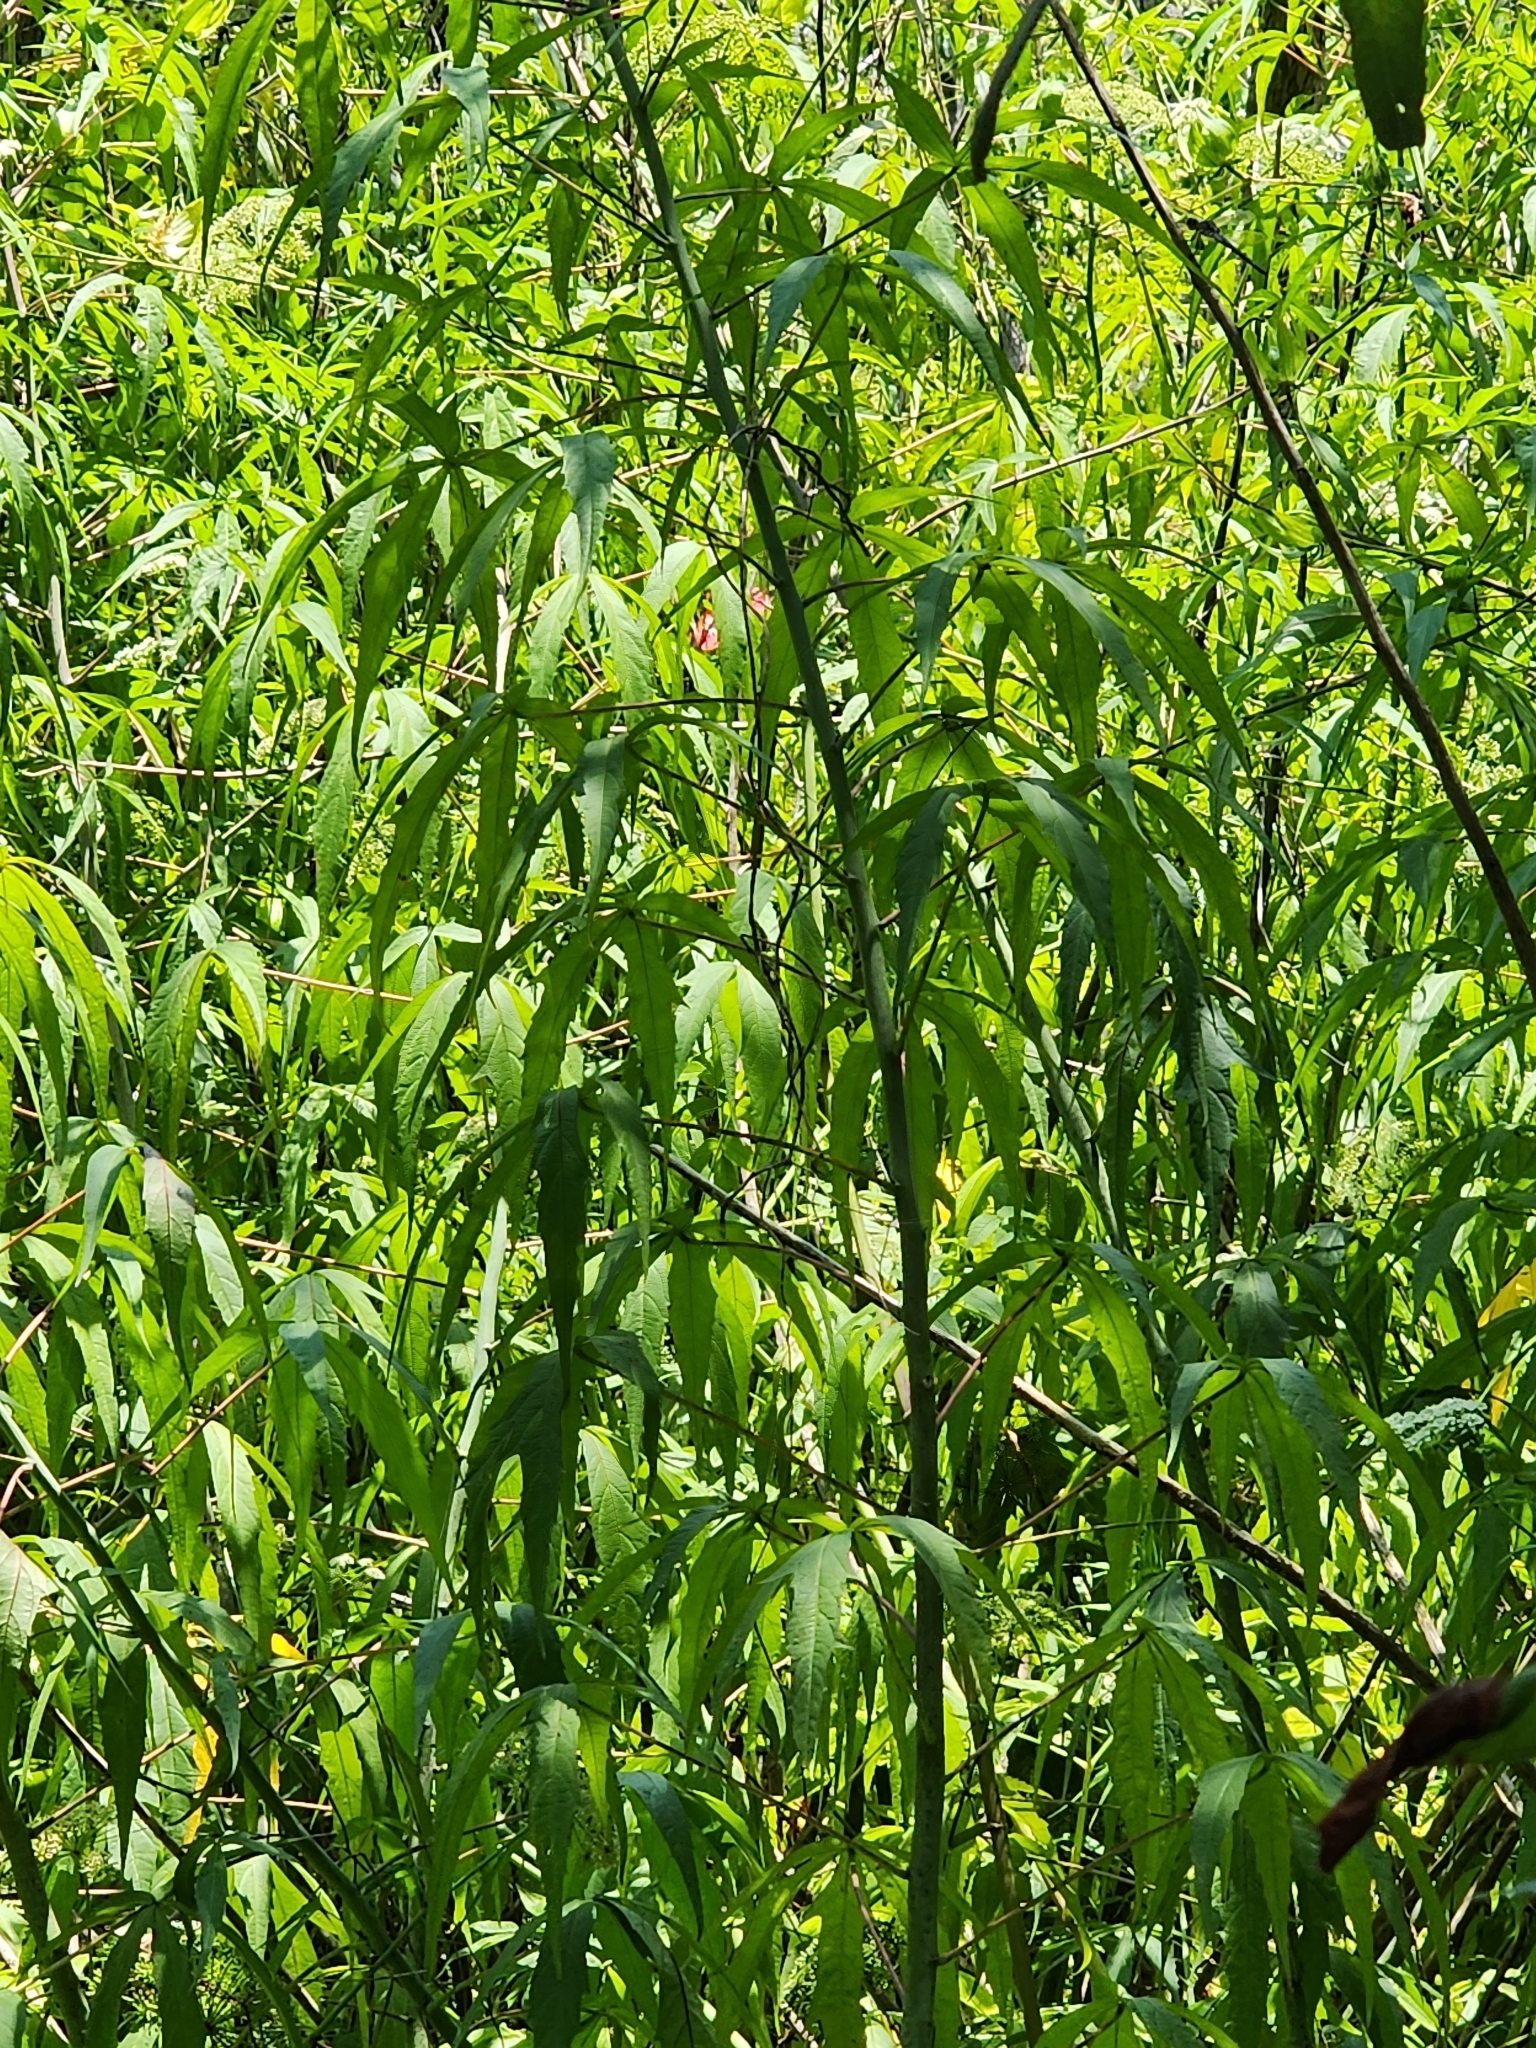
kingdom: Plantae
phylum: Tracheophyta
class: Magnoliopsida
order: Malvales
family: Malvaceae
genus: Hibiscus
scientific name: Hibiscus coccineus
